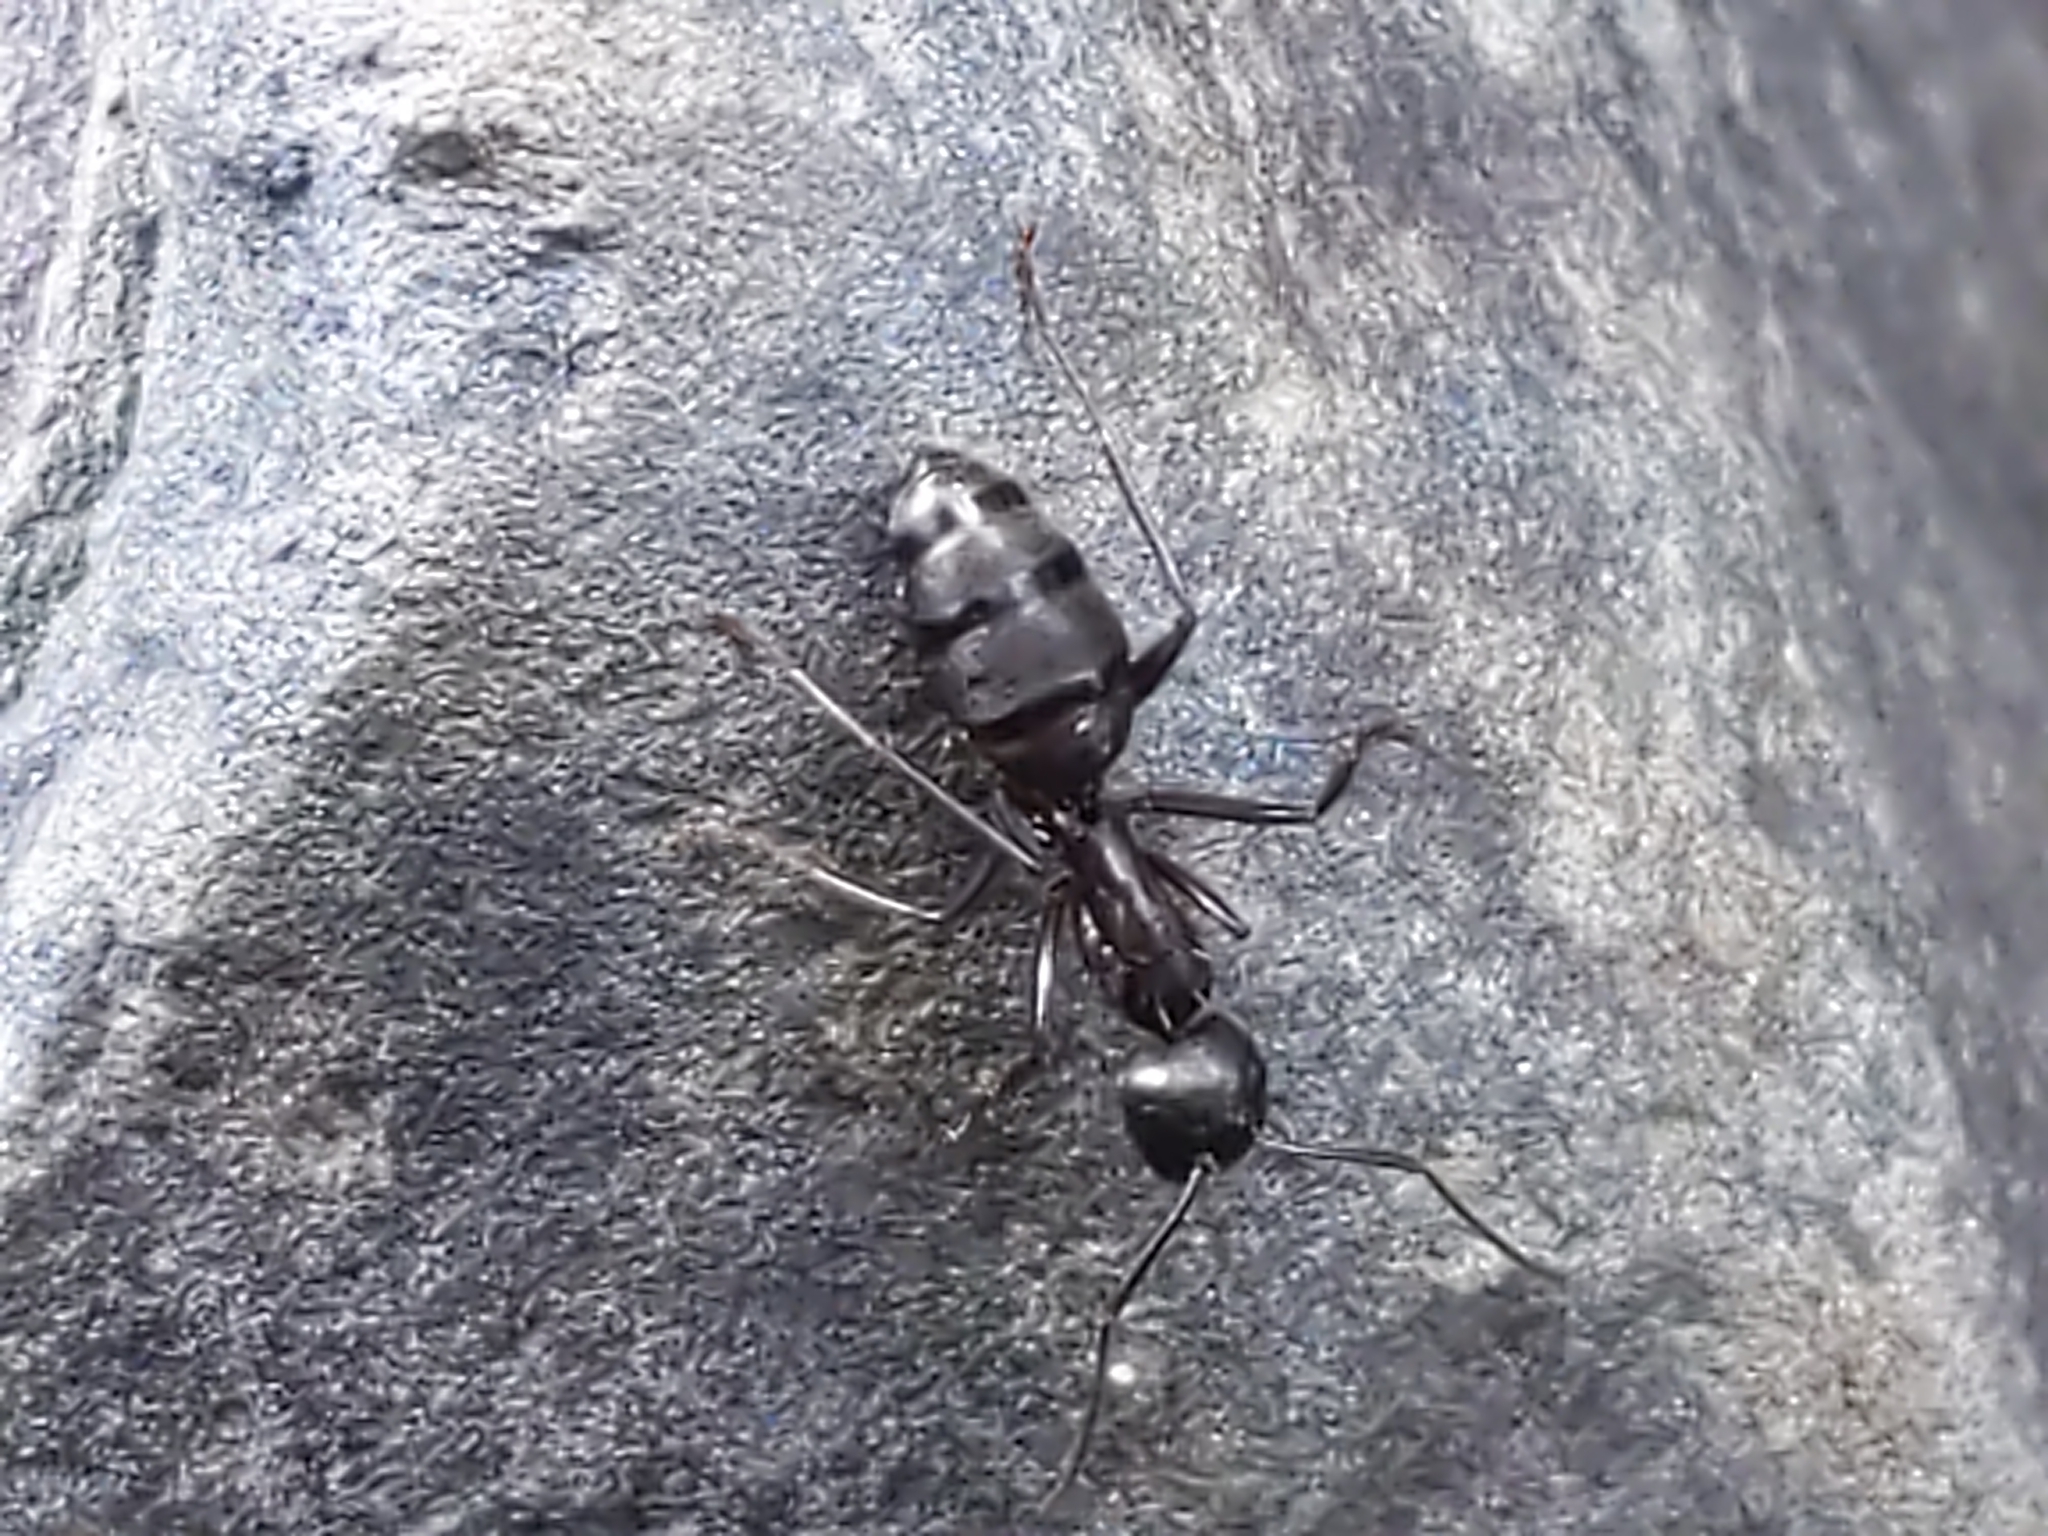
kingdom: Animalia
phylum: Arthropoda
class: Insecta
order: Hymenoptera
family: Formicidae
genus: Camponotus
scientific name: Camponotus pennsylvanicus
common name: Black carpenter ant
